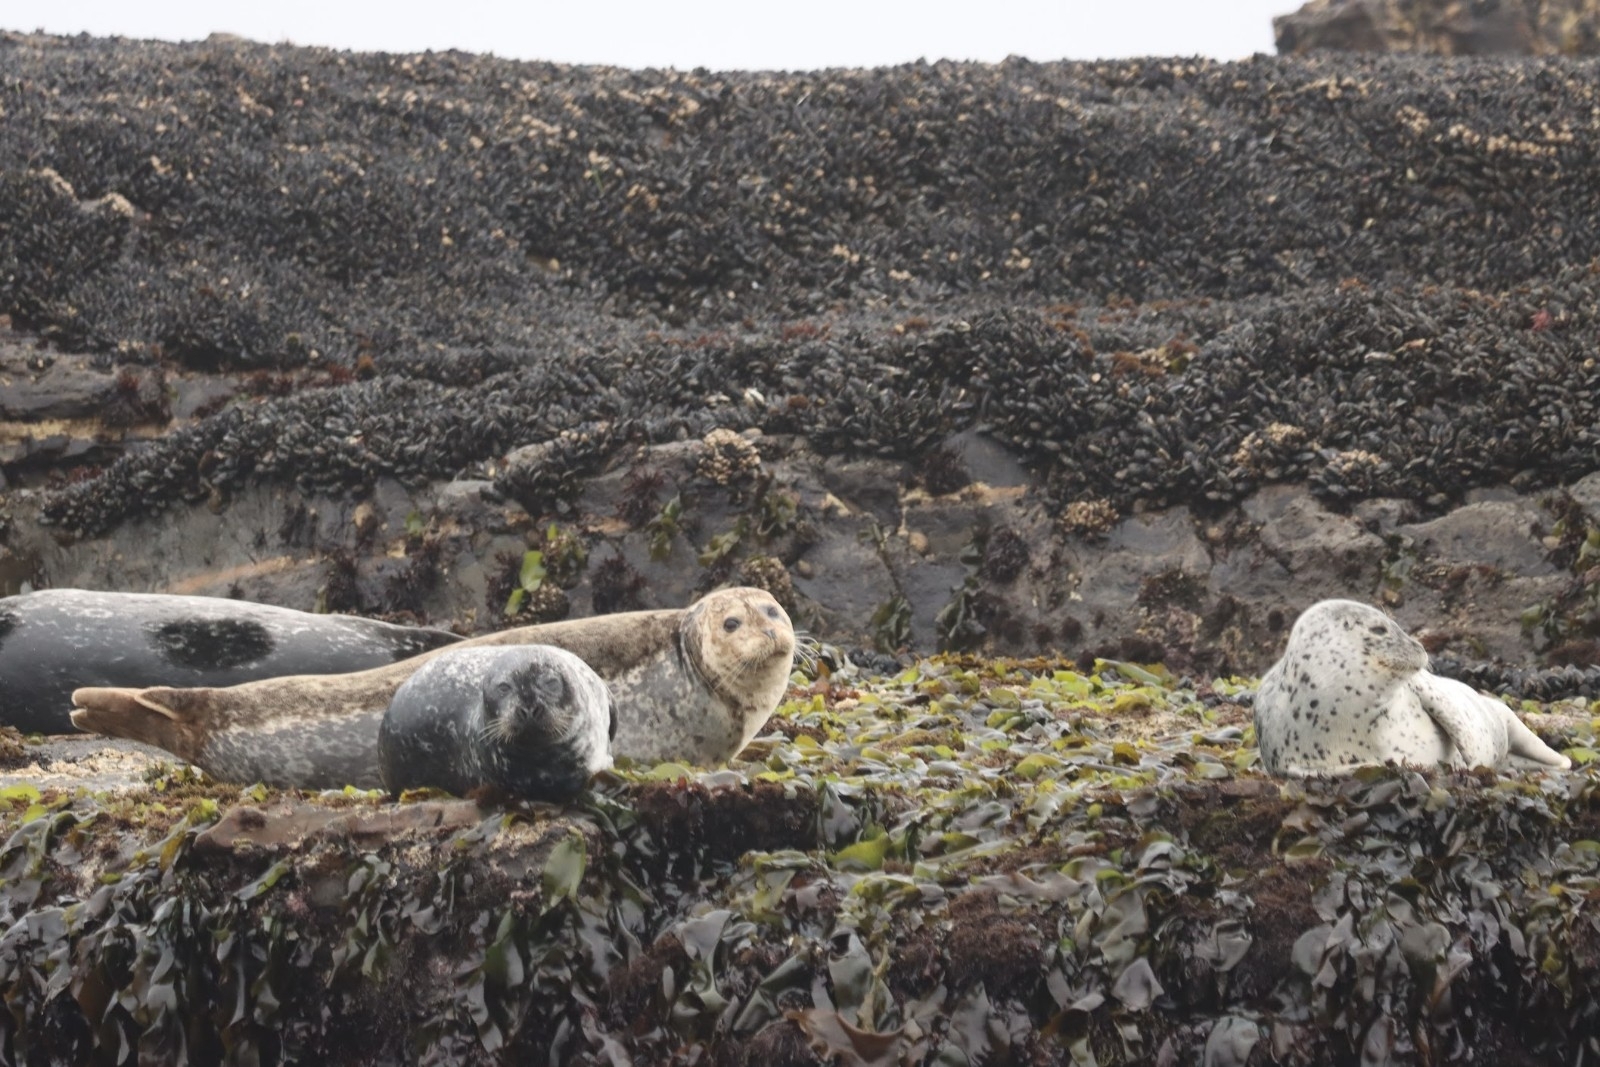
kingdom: Animalia
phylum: Chordata
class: Mammalia
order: Carnivora
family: Phocidae
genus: Phoca
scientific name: Phoca vitulina
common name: Harbor seal
